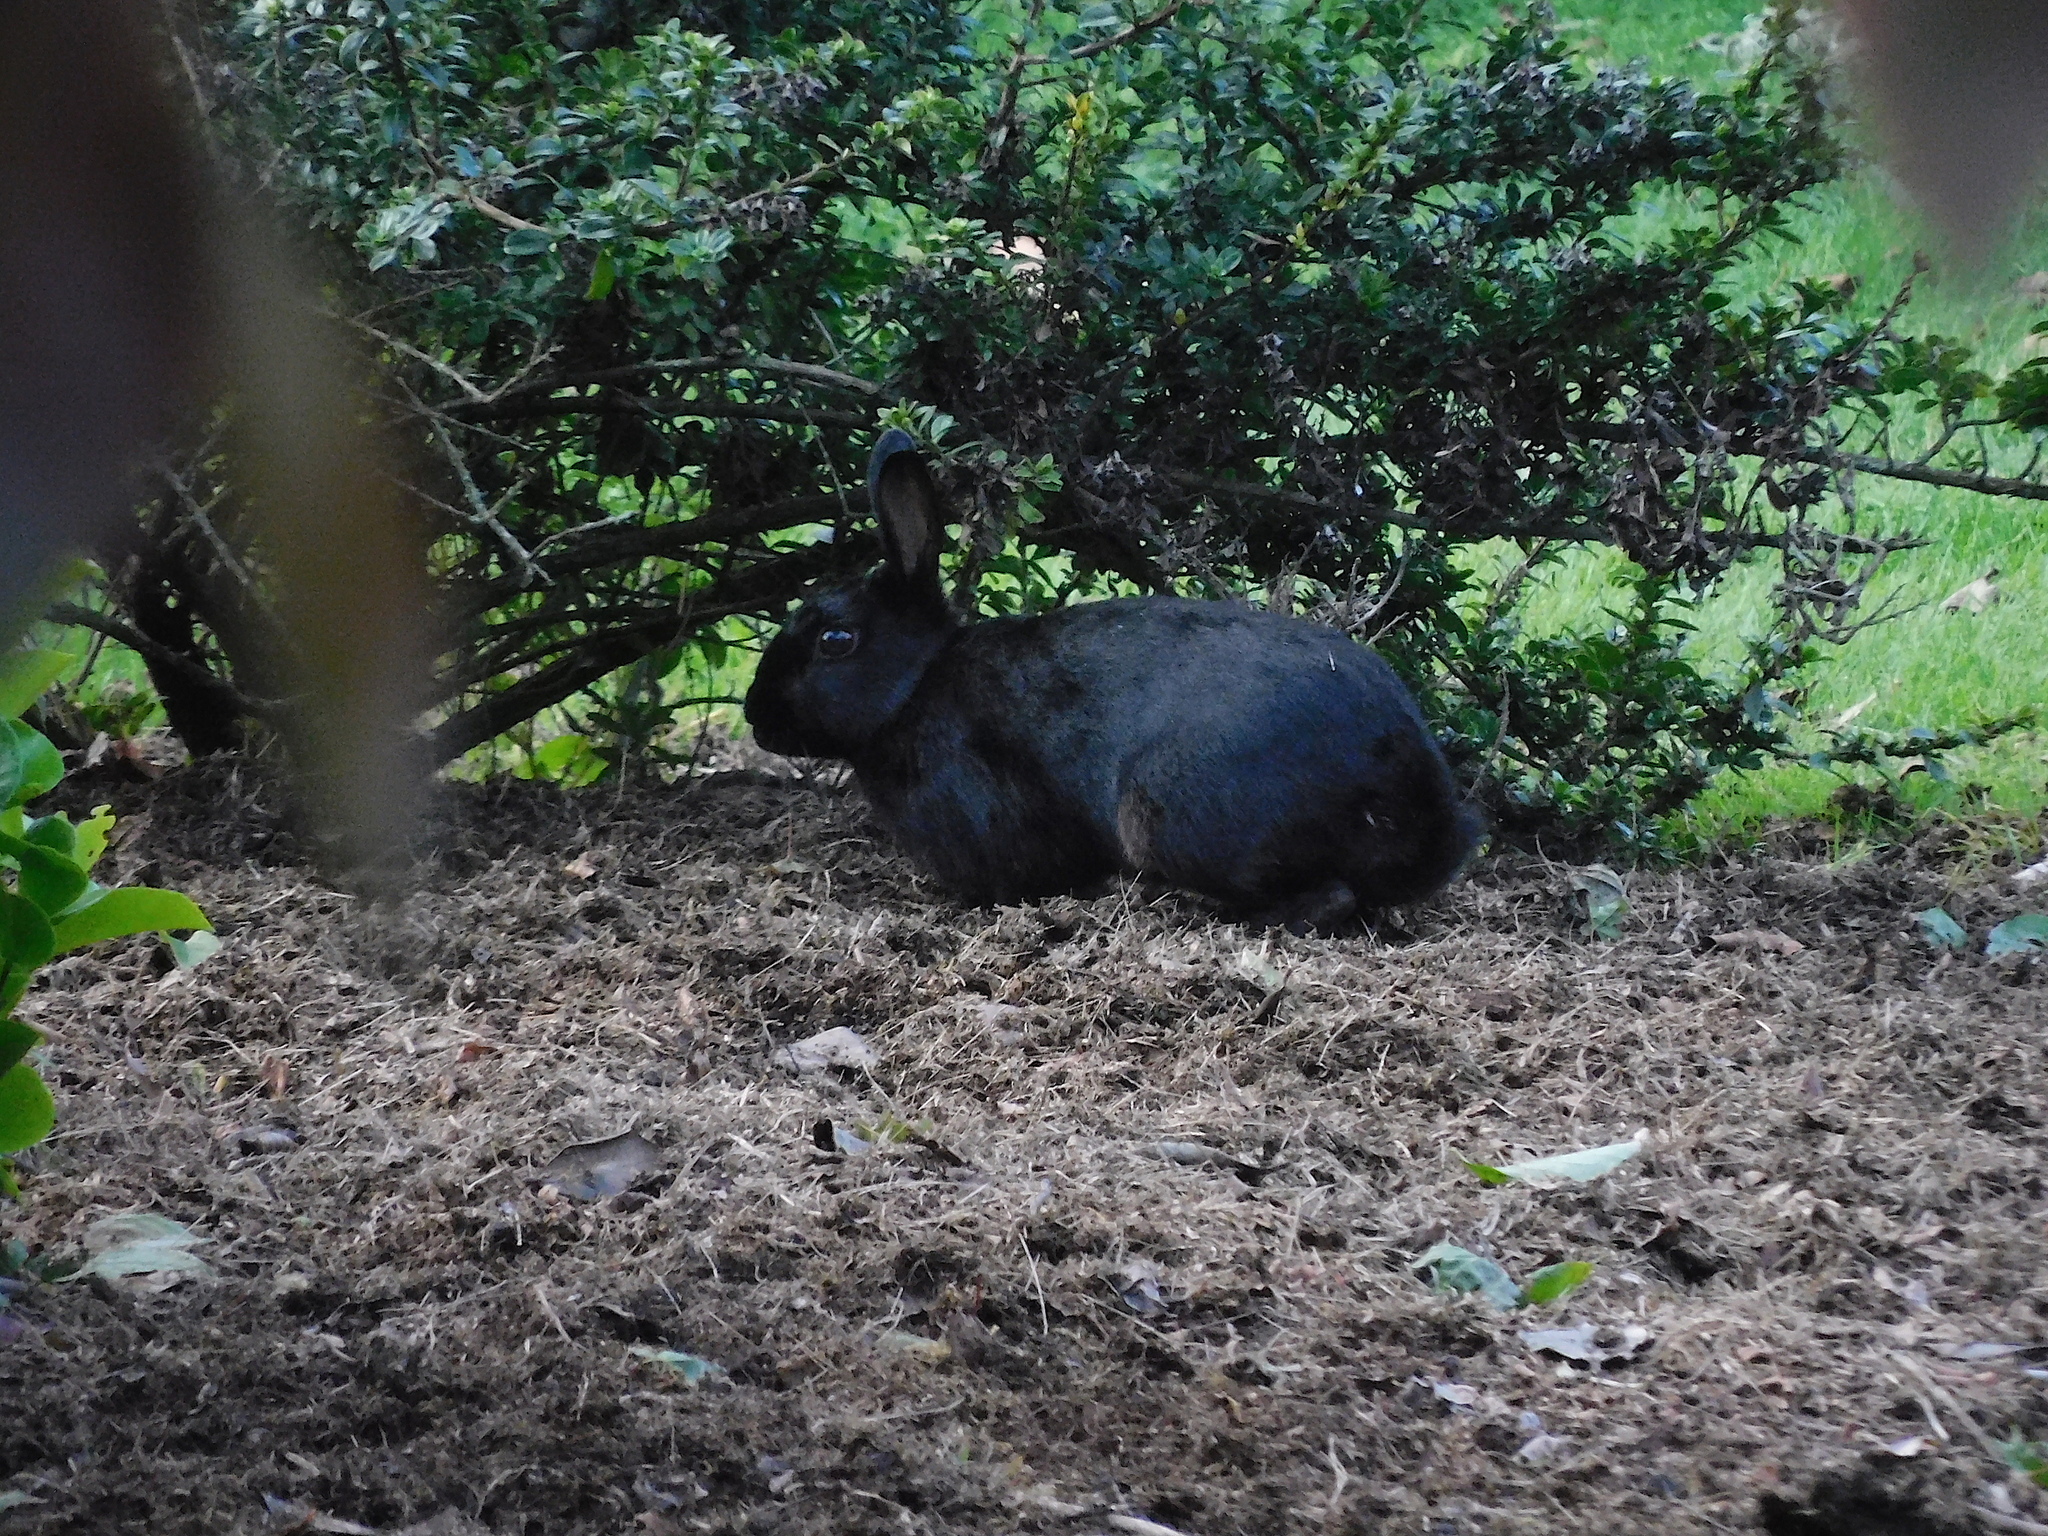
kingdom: Animalia
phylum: Chordata
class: Mammalia
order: Lagomorpha
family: Leporidae
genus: Oryctolagus
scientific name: Oryctolagus cuniculus
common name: European rabbit
